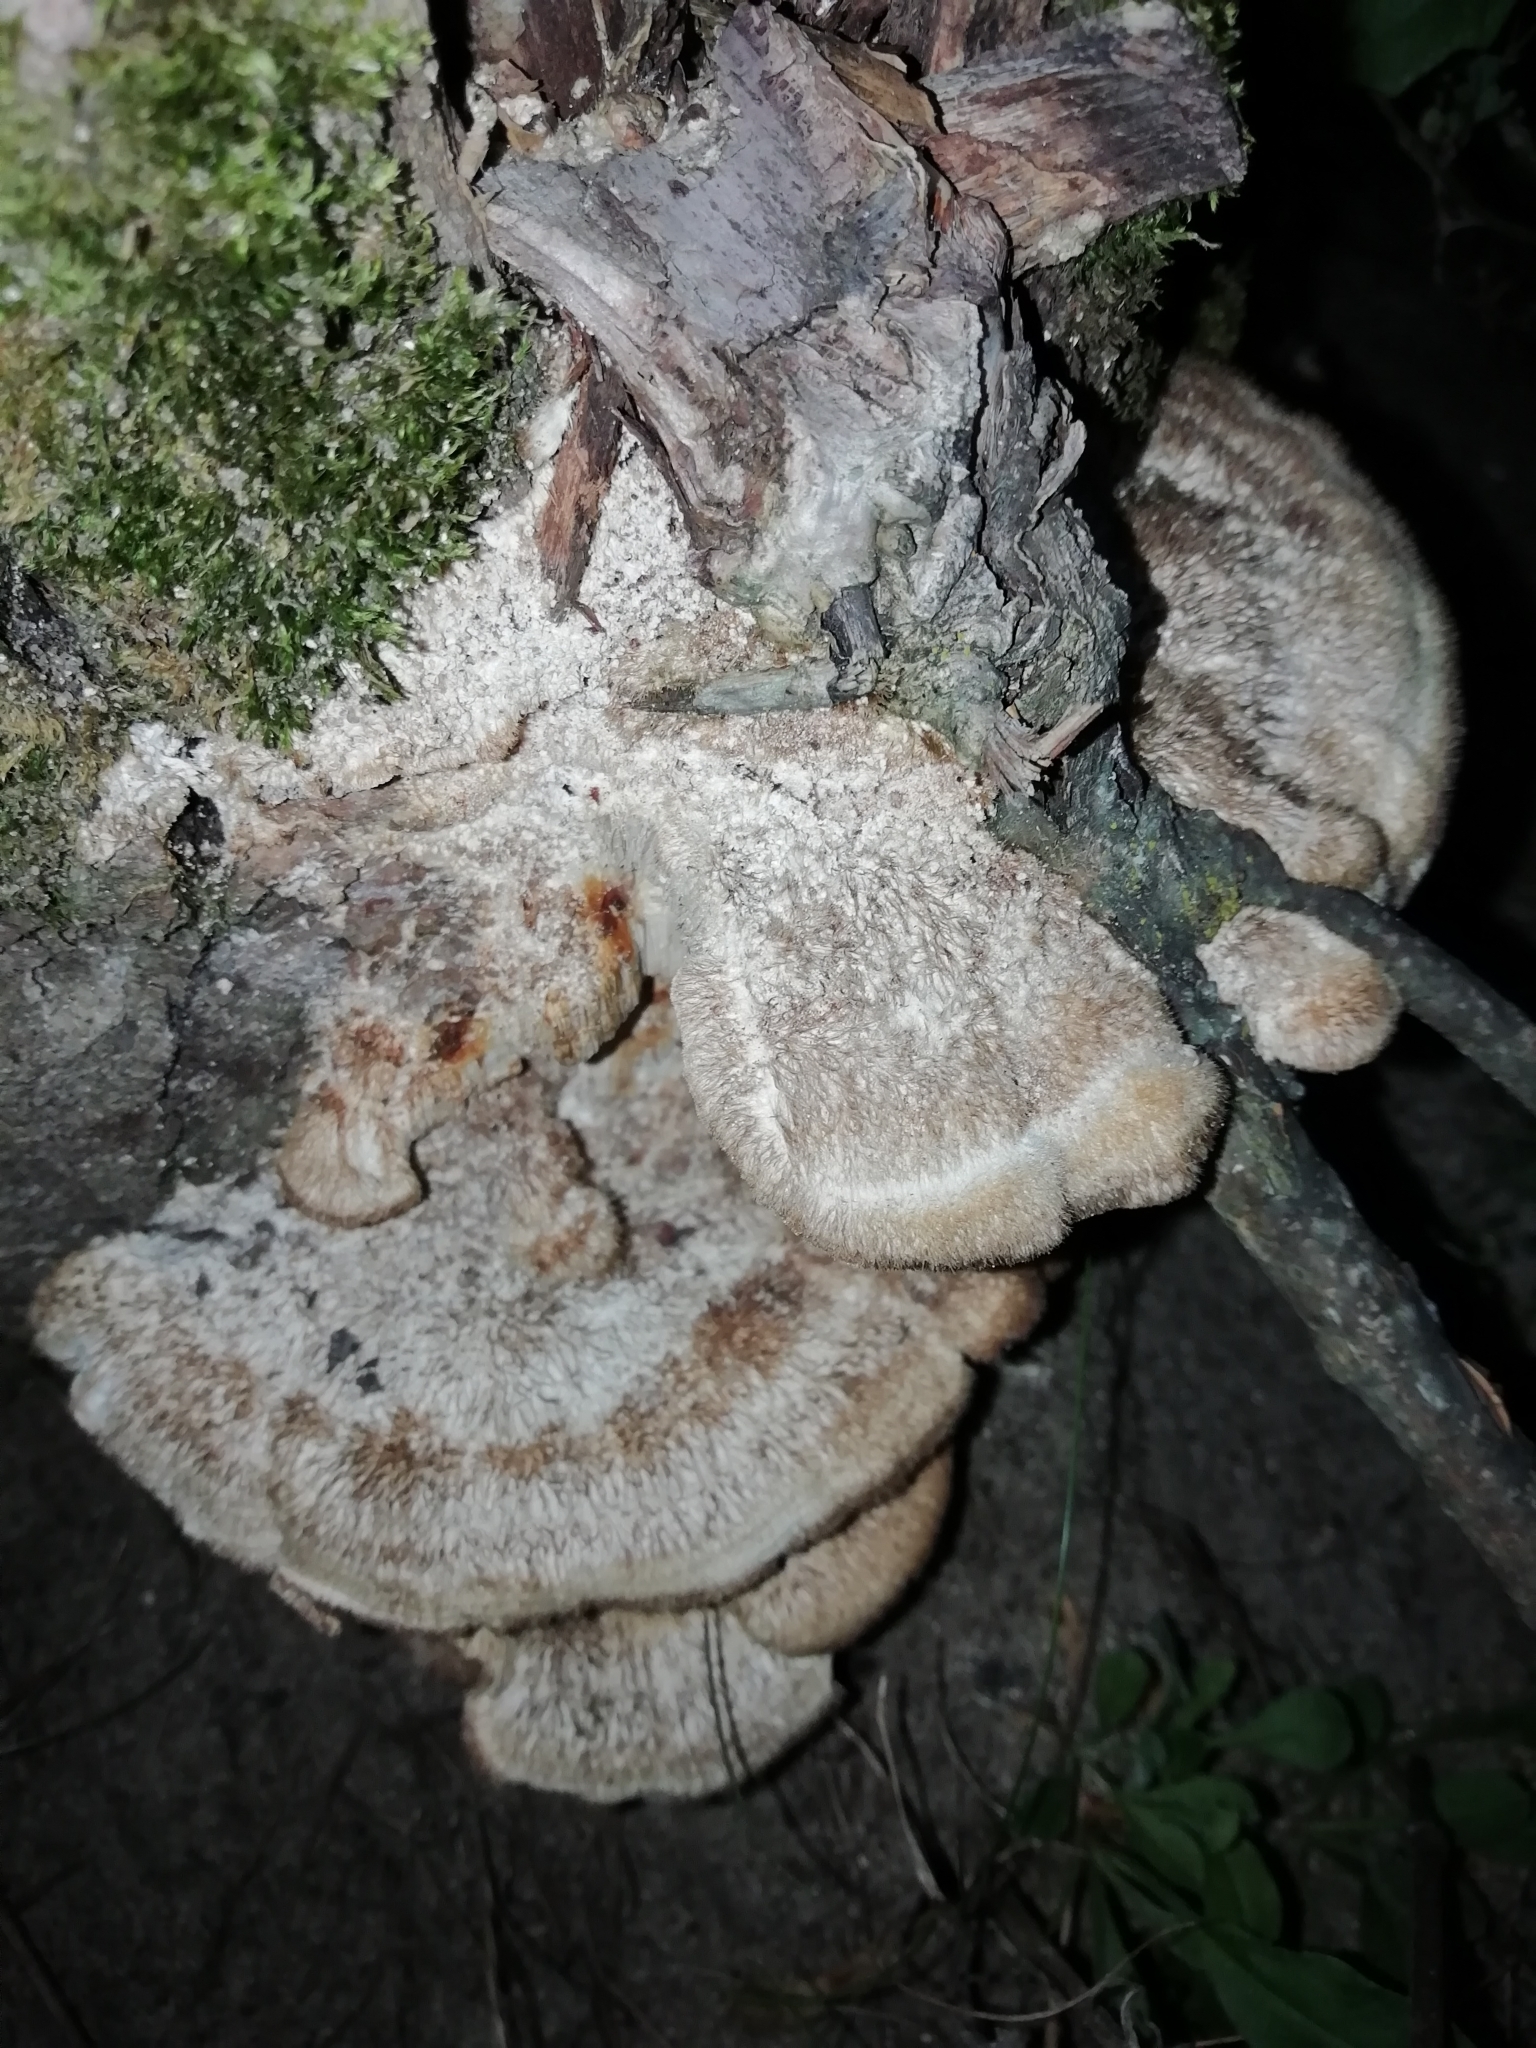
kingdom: Fungi
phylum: Basidiomycota
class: Agaricomycetes
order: Polyporales
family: Polyporaceae
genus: Trametes
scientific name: Trametes trogii
